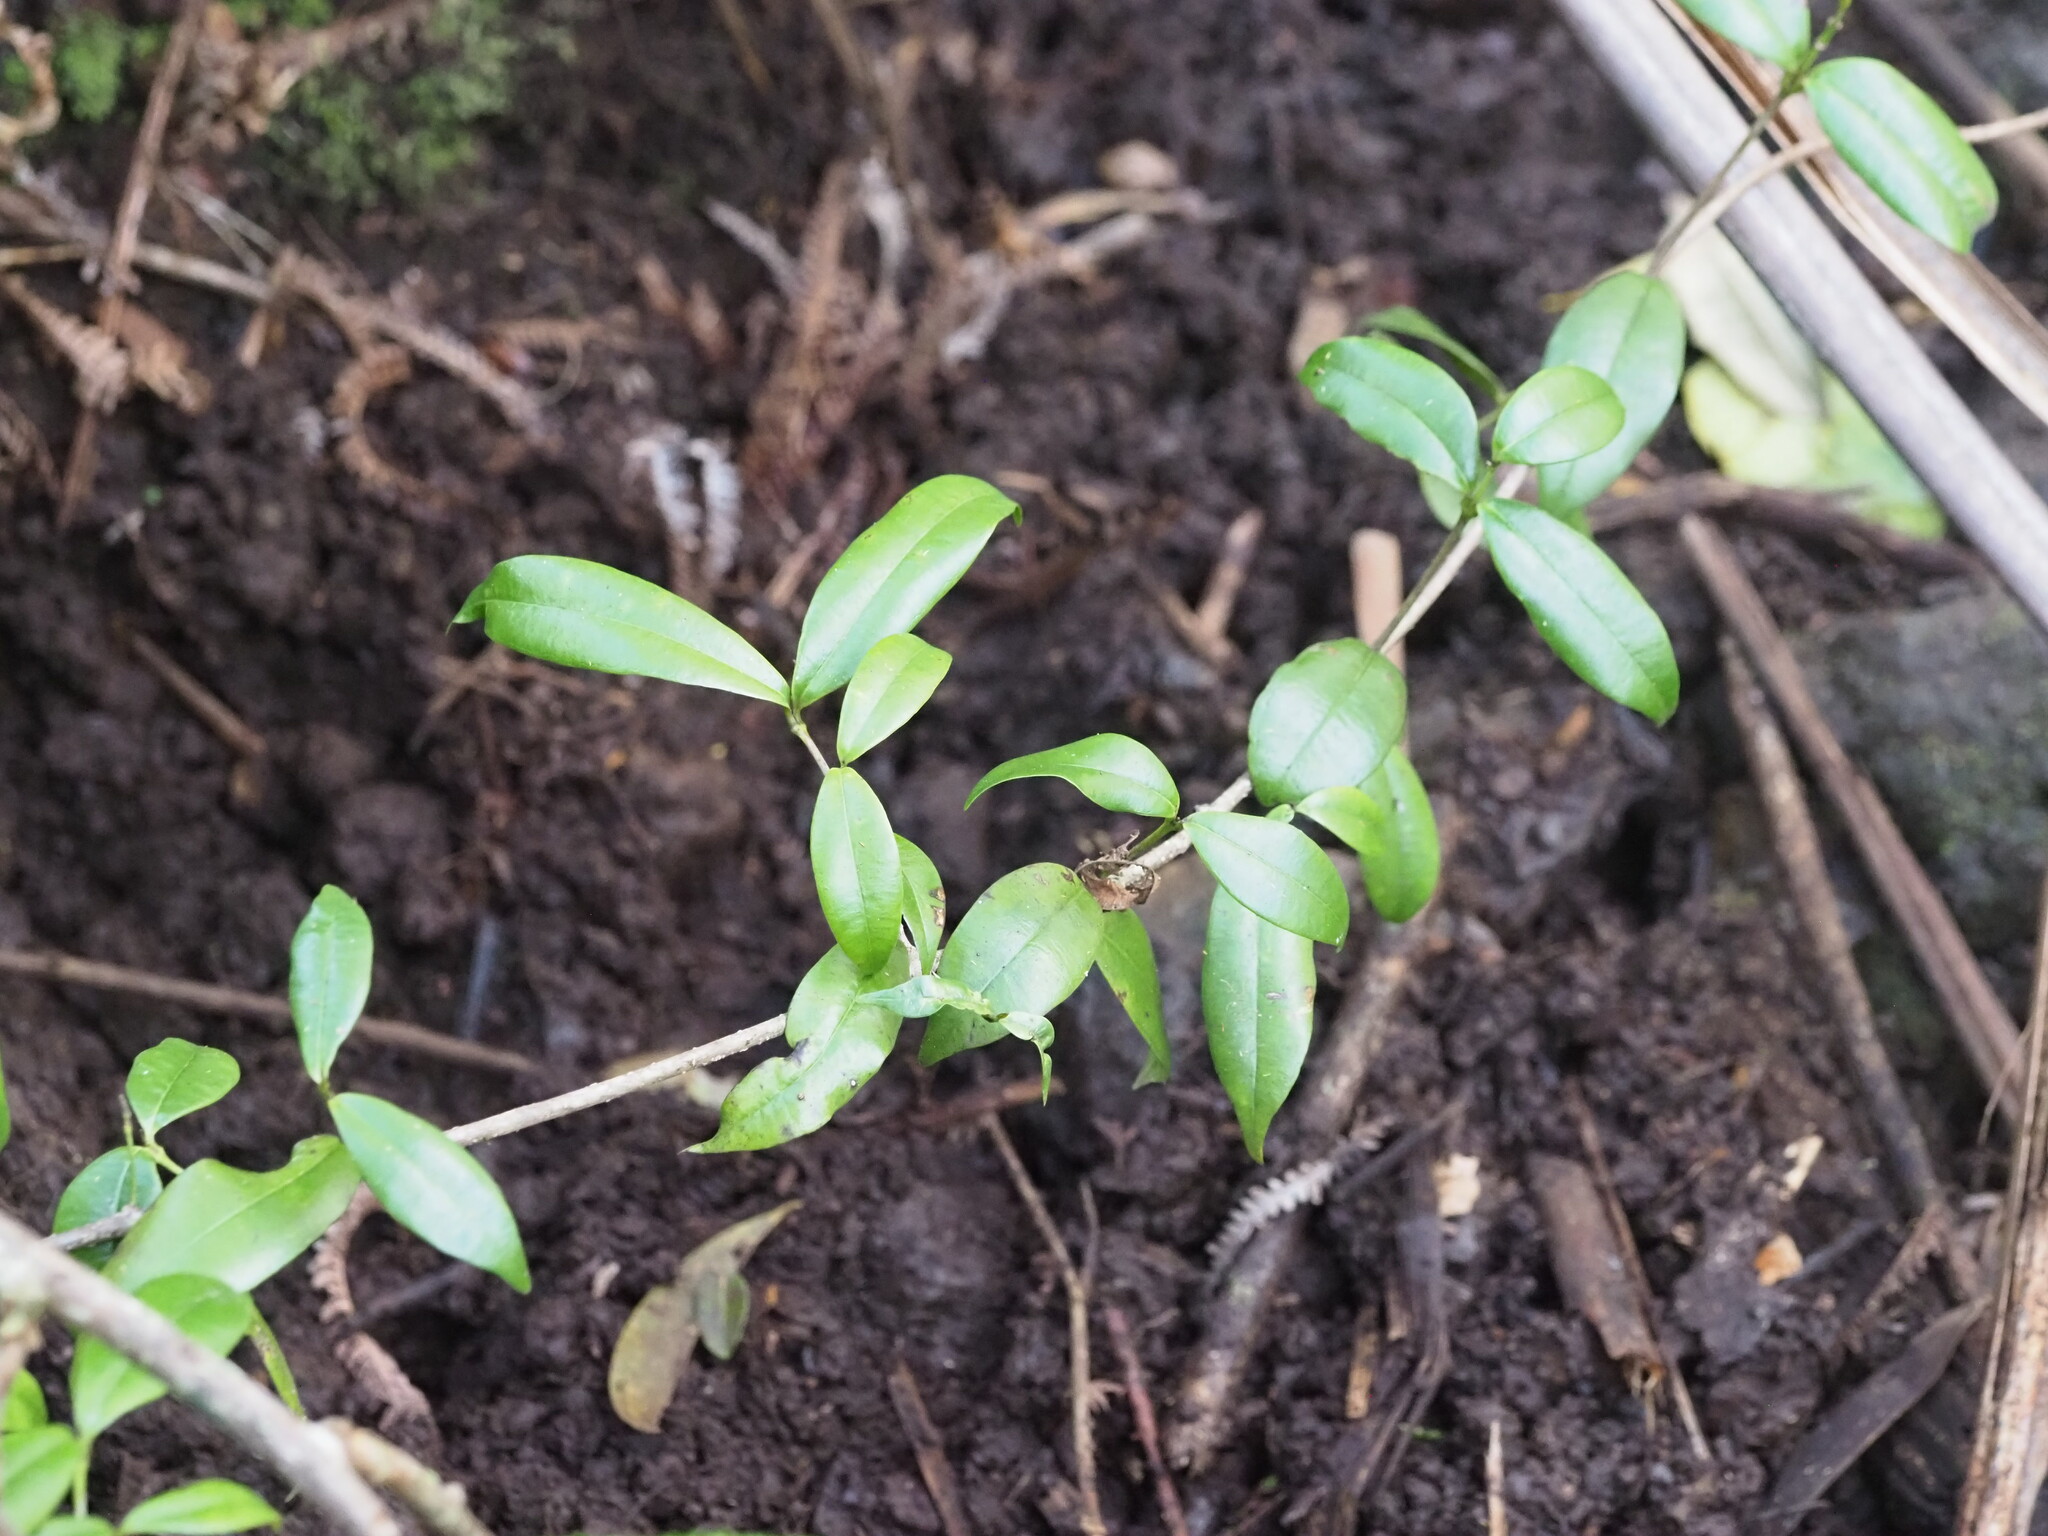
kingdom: Plantae
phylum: Tracheophyta
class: Magnoliopsida
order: Gentianales
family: Apocynaceae
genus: Alyxia
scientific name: Alyxia stellata
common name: Maile
